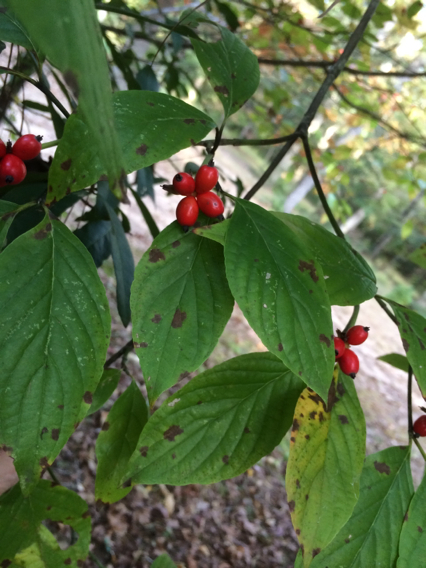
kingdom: Plantae
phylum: Tracheophyta
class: Magnoliopsida
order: Cornales
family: Cornaceae
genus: Cornus
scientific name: Cornus florida
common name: Flowering dogwood
